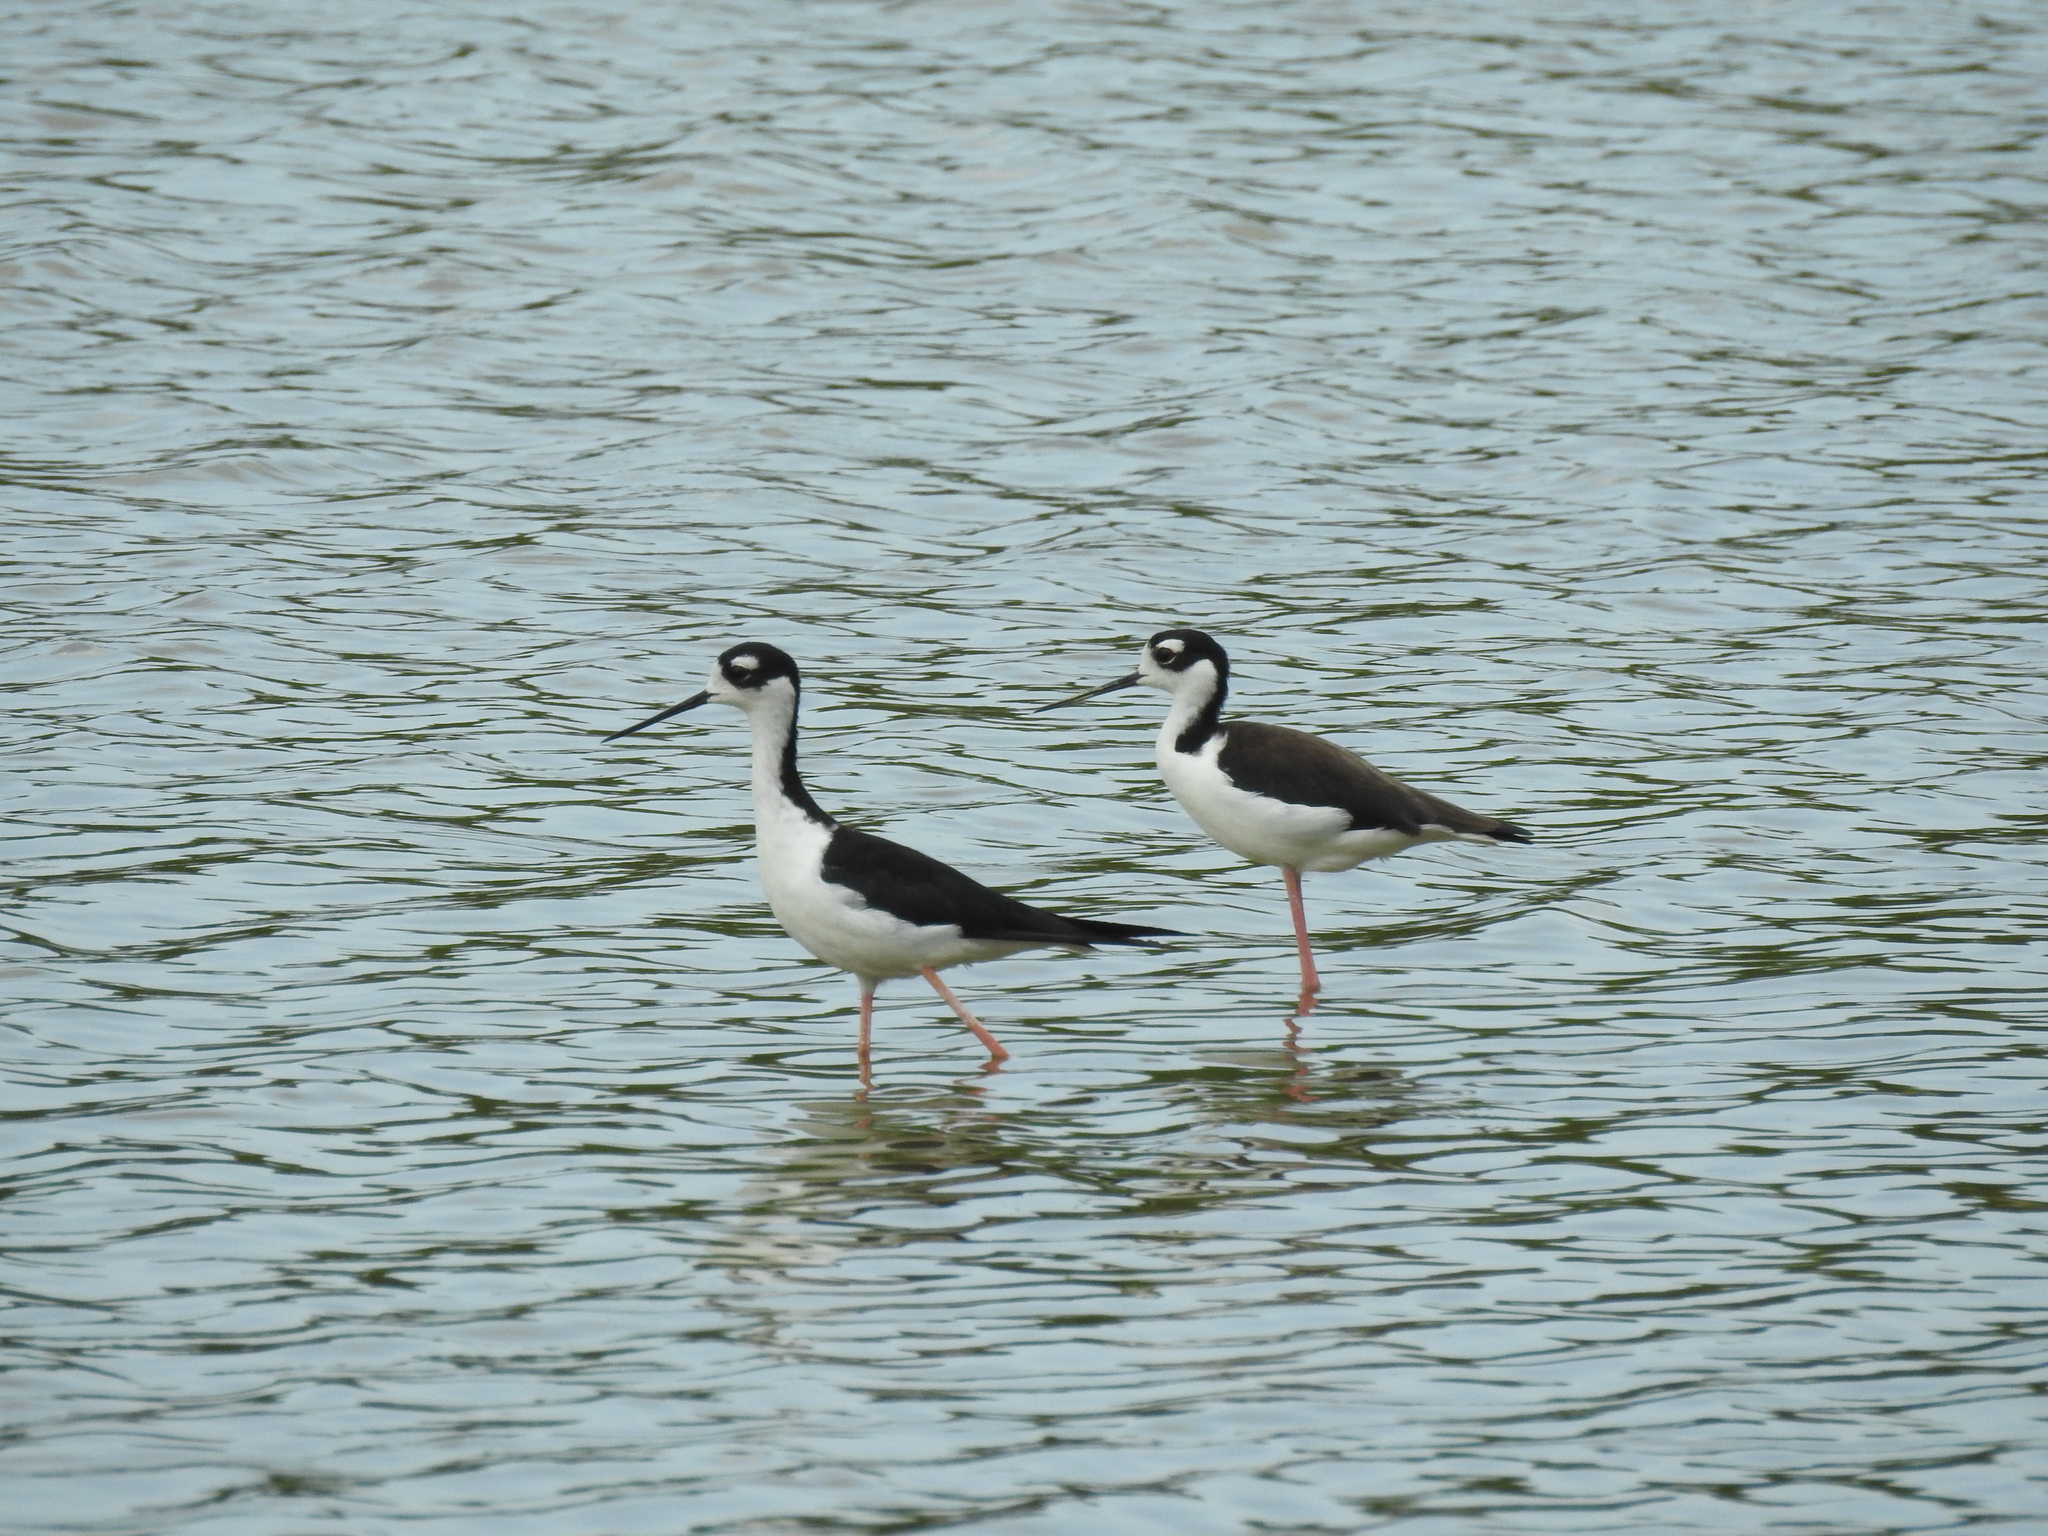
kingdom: Animalia
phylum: Chordata
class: Aves
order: Charadriiformes
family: Recurvirostridae
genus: Himantopus
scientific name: Himantopus mexicanus
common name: Black-necked stilt
